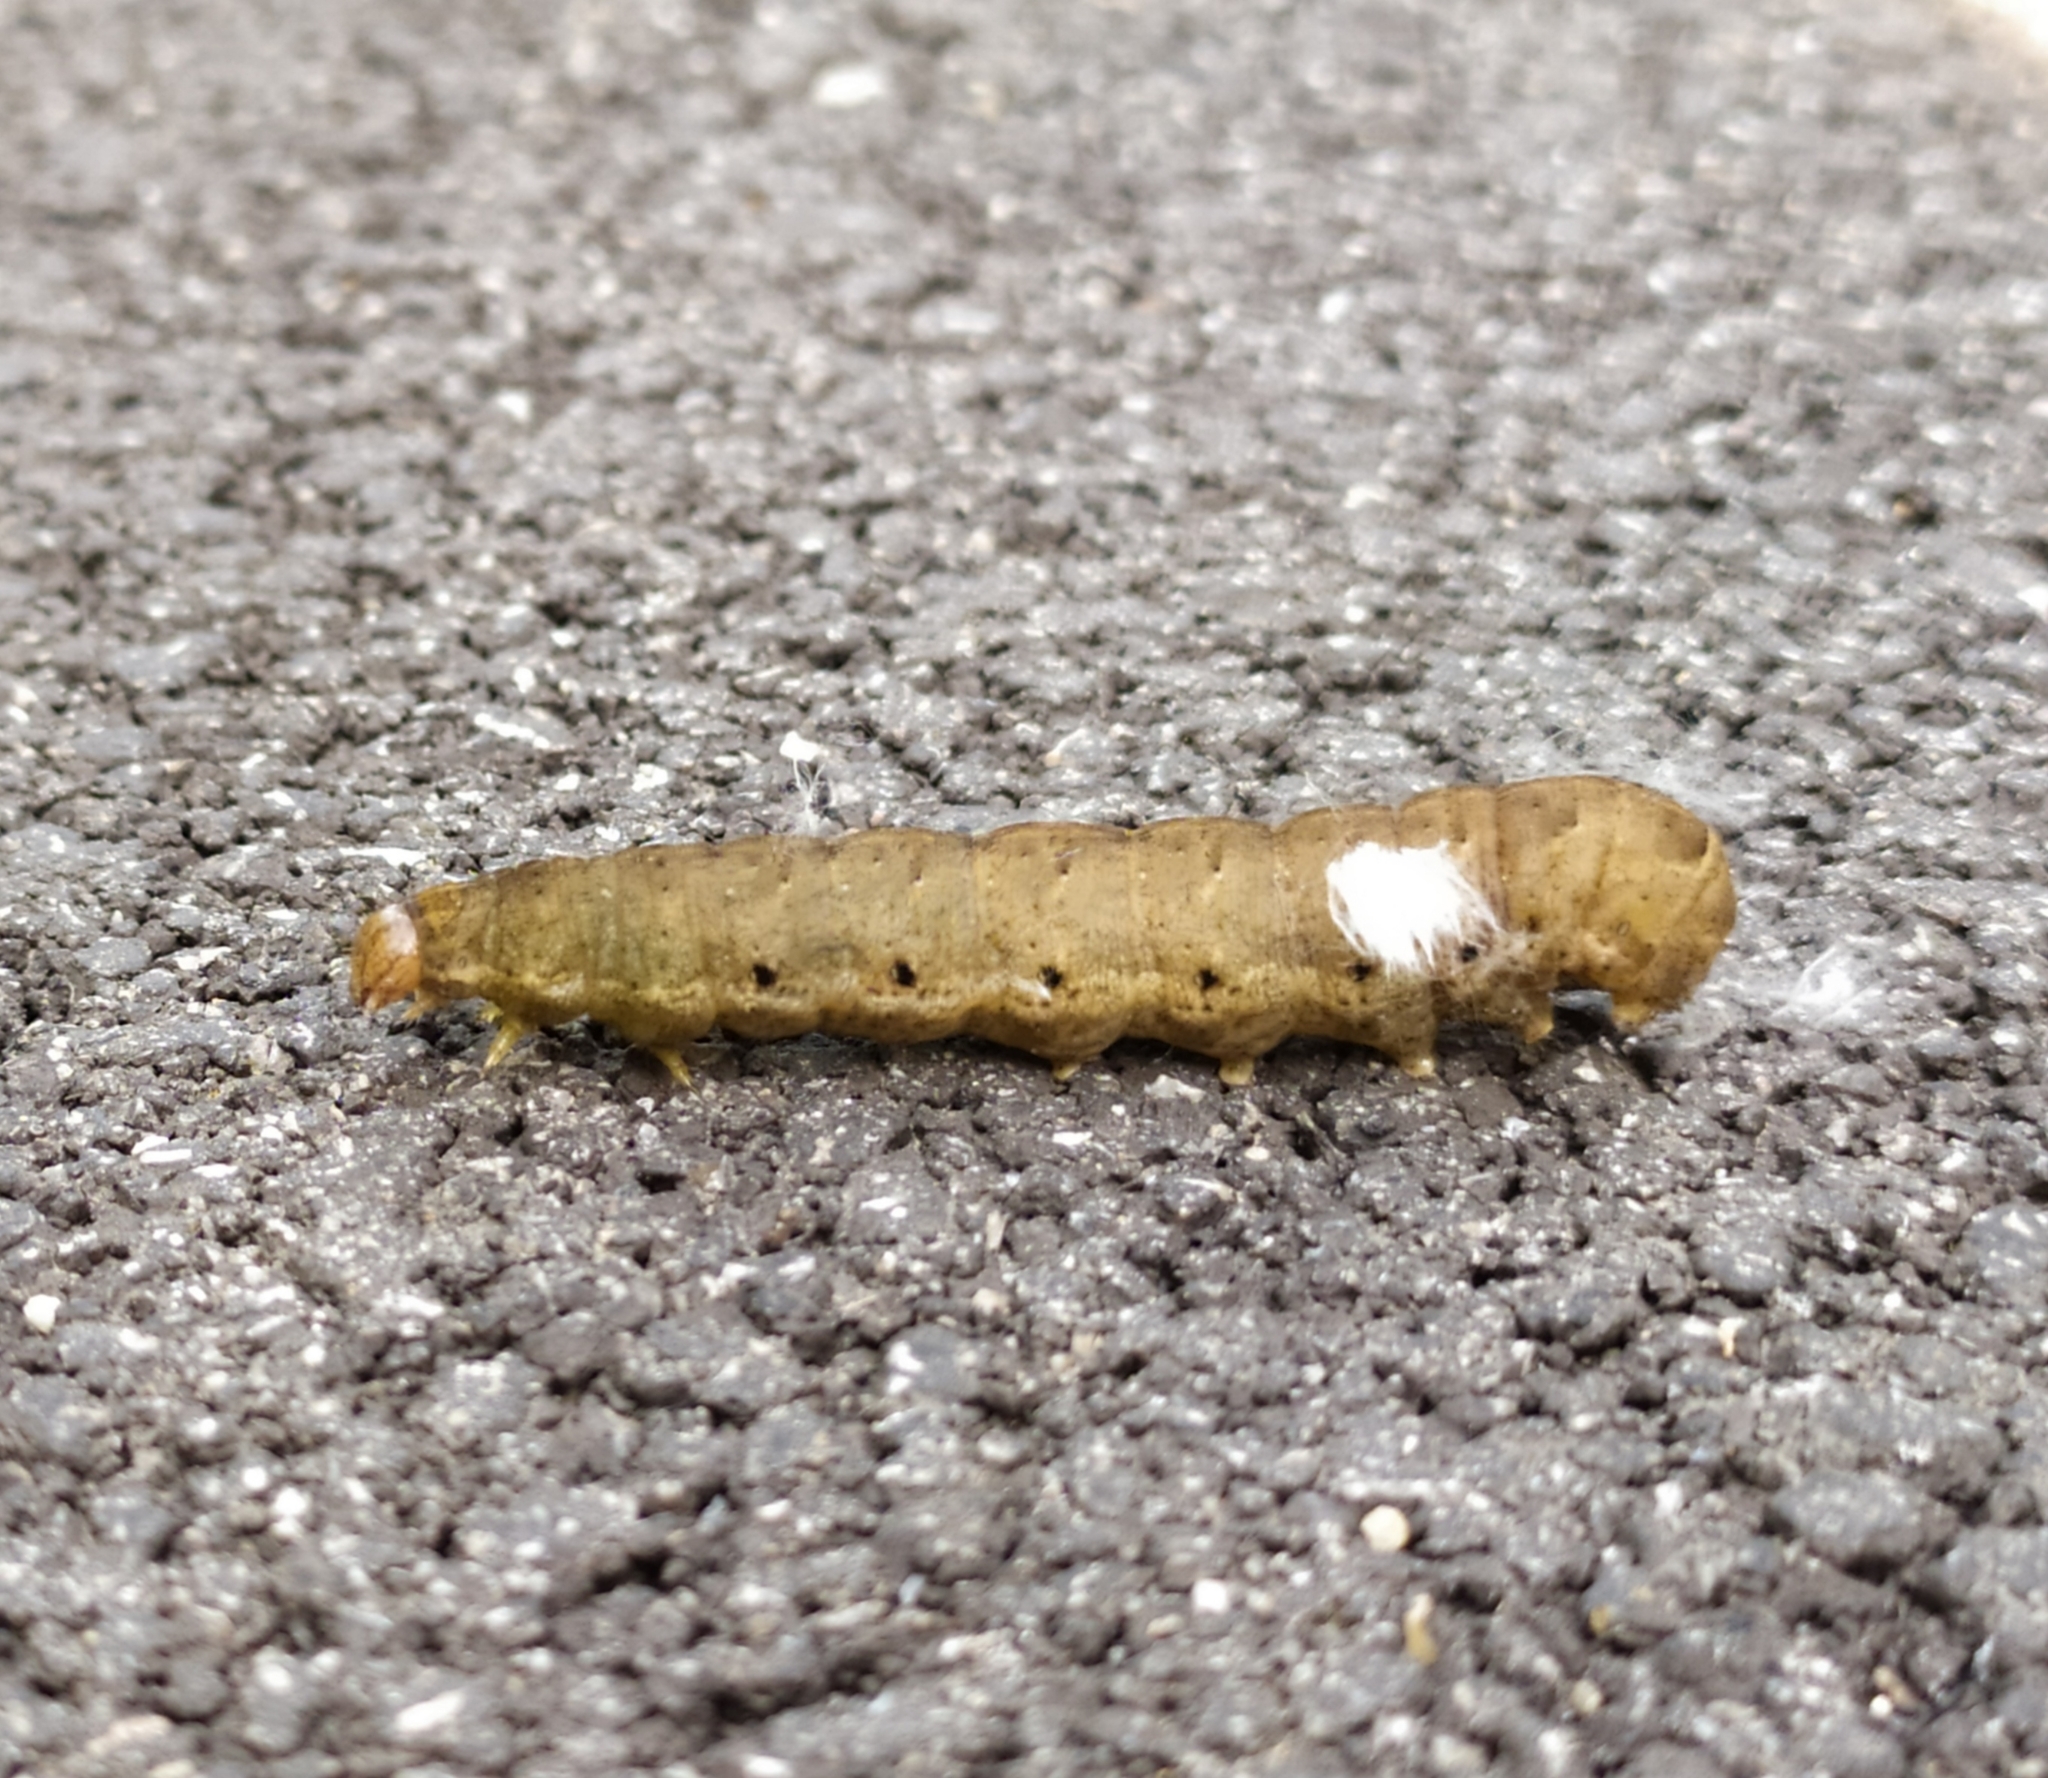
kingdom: Animalia
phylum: Arthropoda
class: Insecta
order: Lepidoptera
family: Noctuidae
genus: Noctua
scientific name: Noctua fimbriata
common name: Broad-bordered yellow underwing
